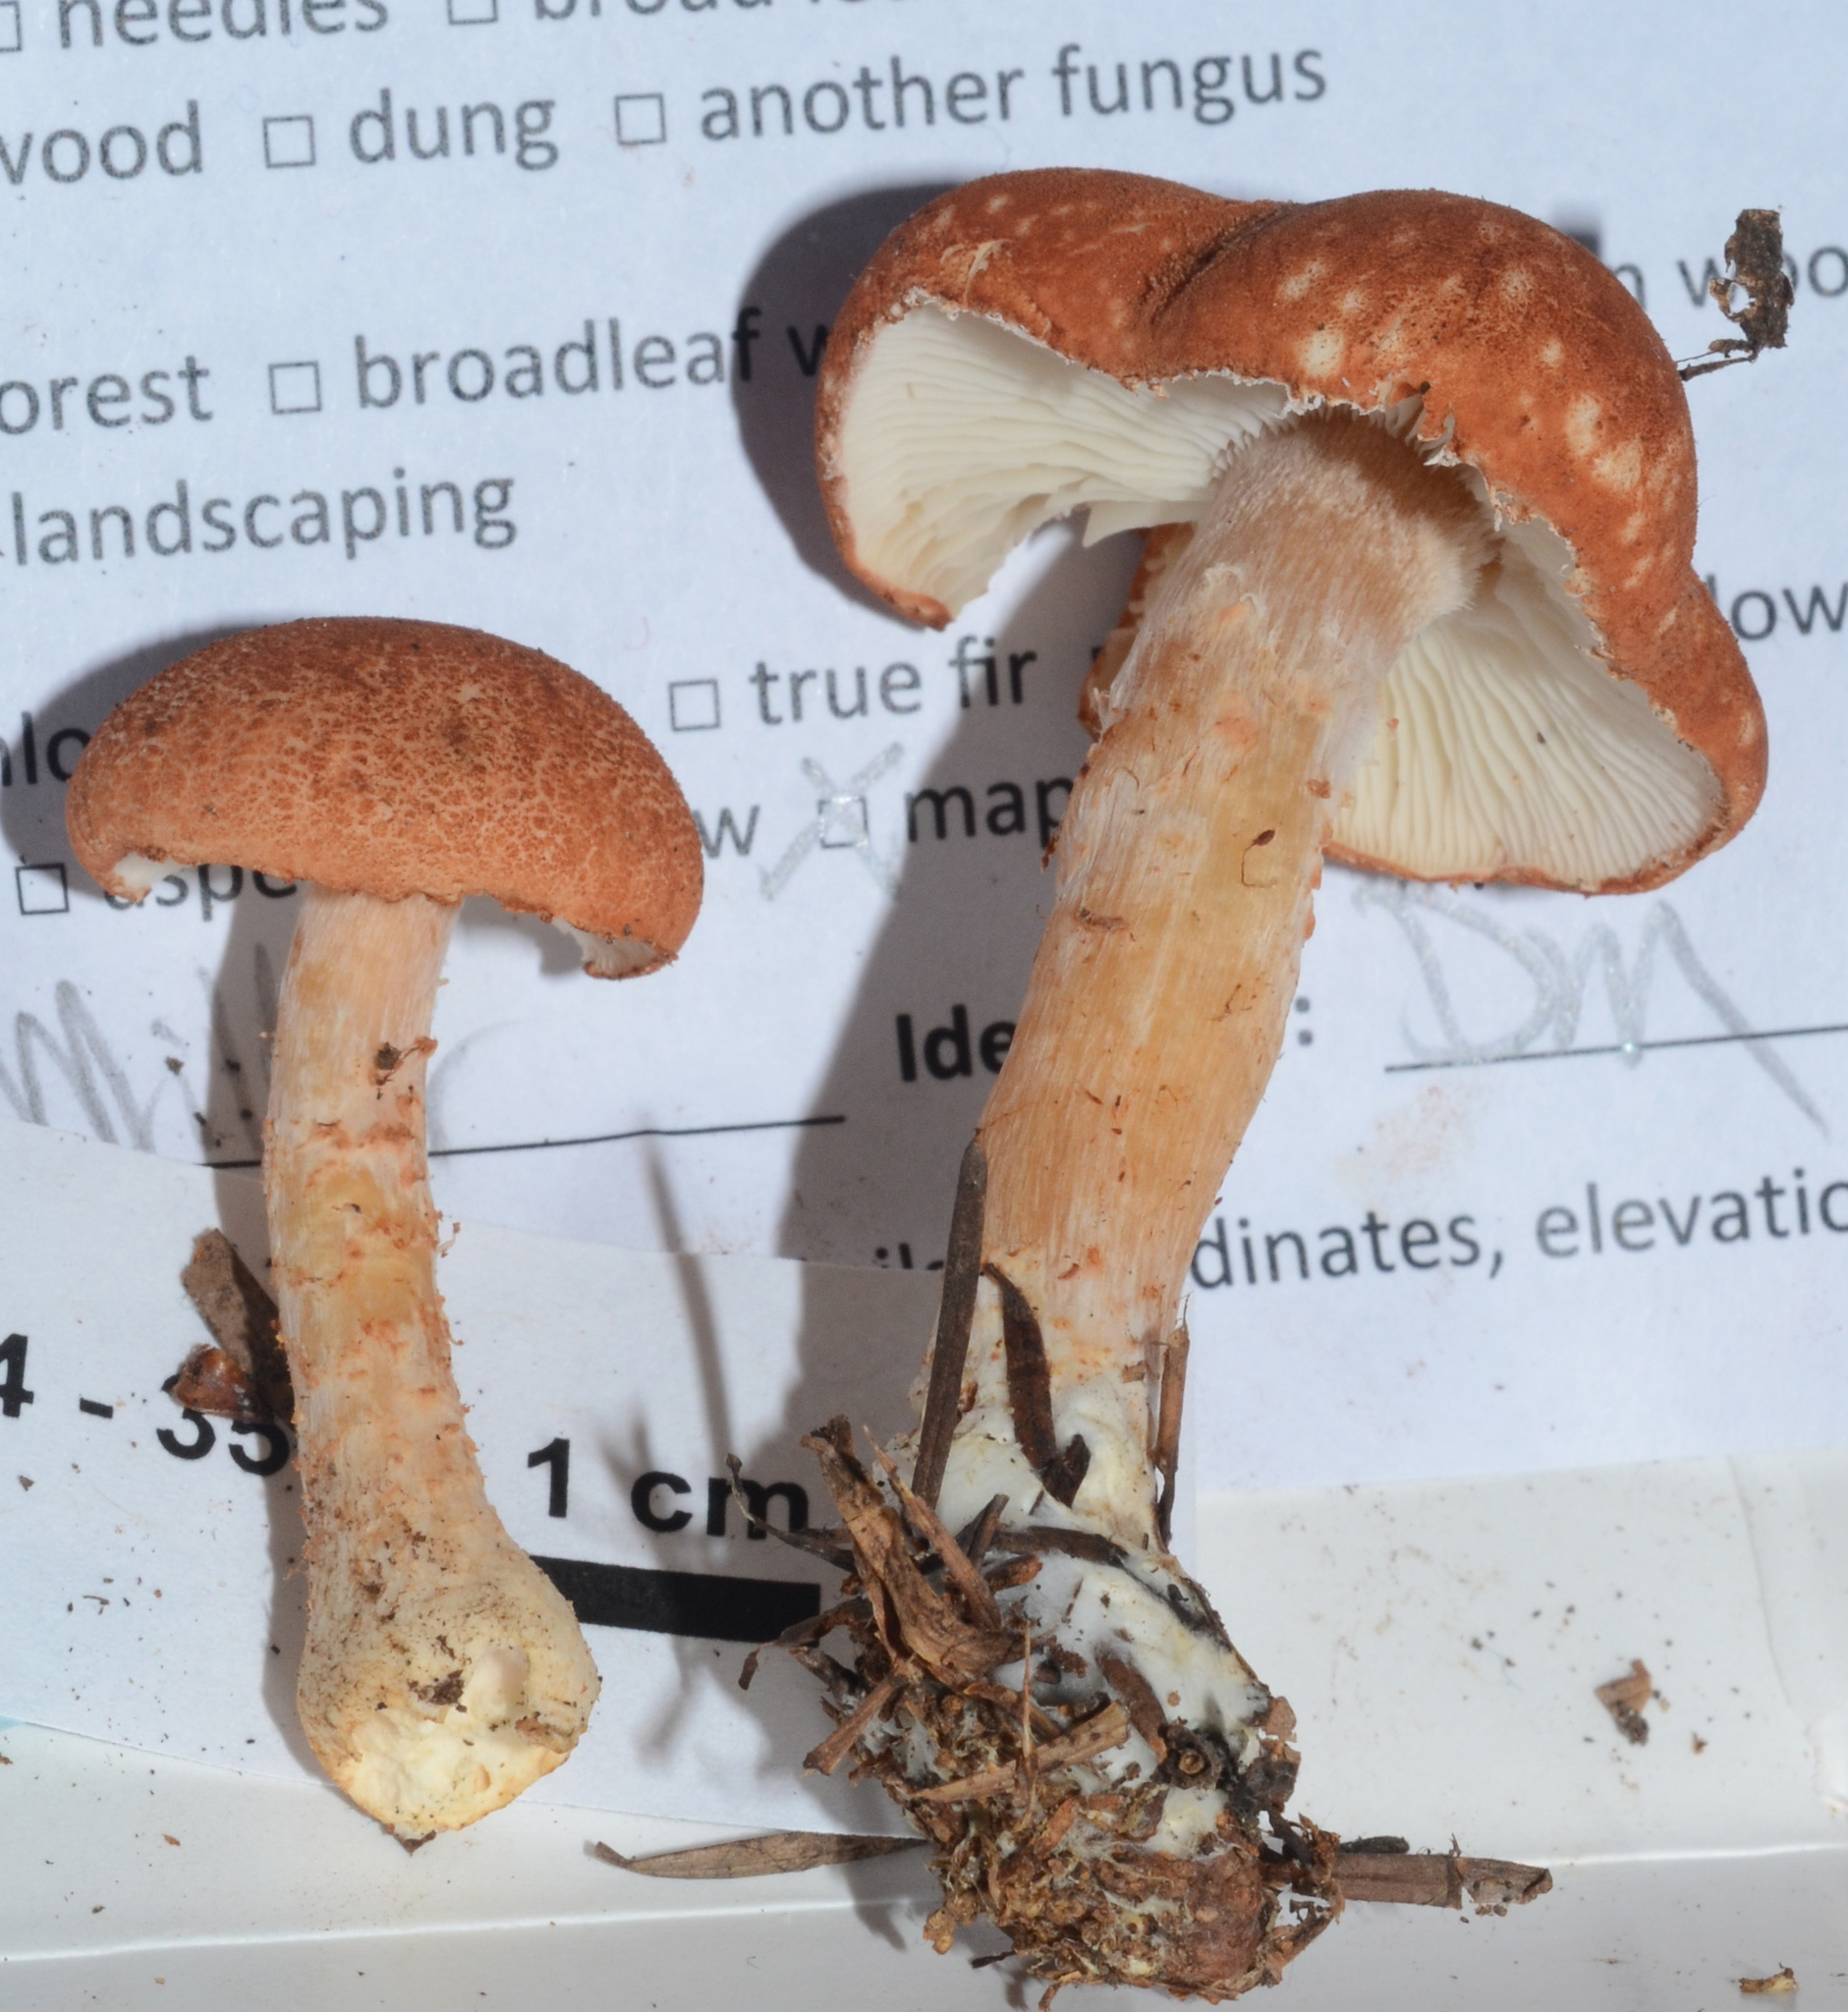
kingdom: Fungi
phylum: Basidiomycota
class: Agaricomycetes
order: Agaricales
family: Agaricaceae
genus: Cystodermella
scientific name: Cystodermella cinnabarina
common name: Cinnabar powdercap
